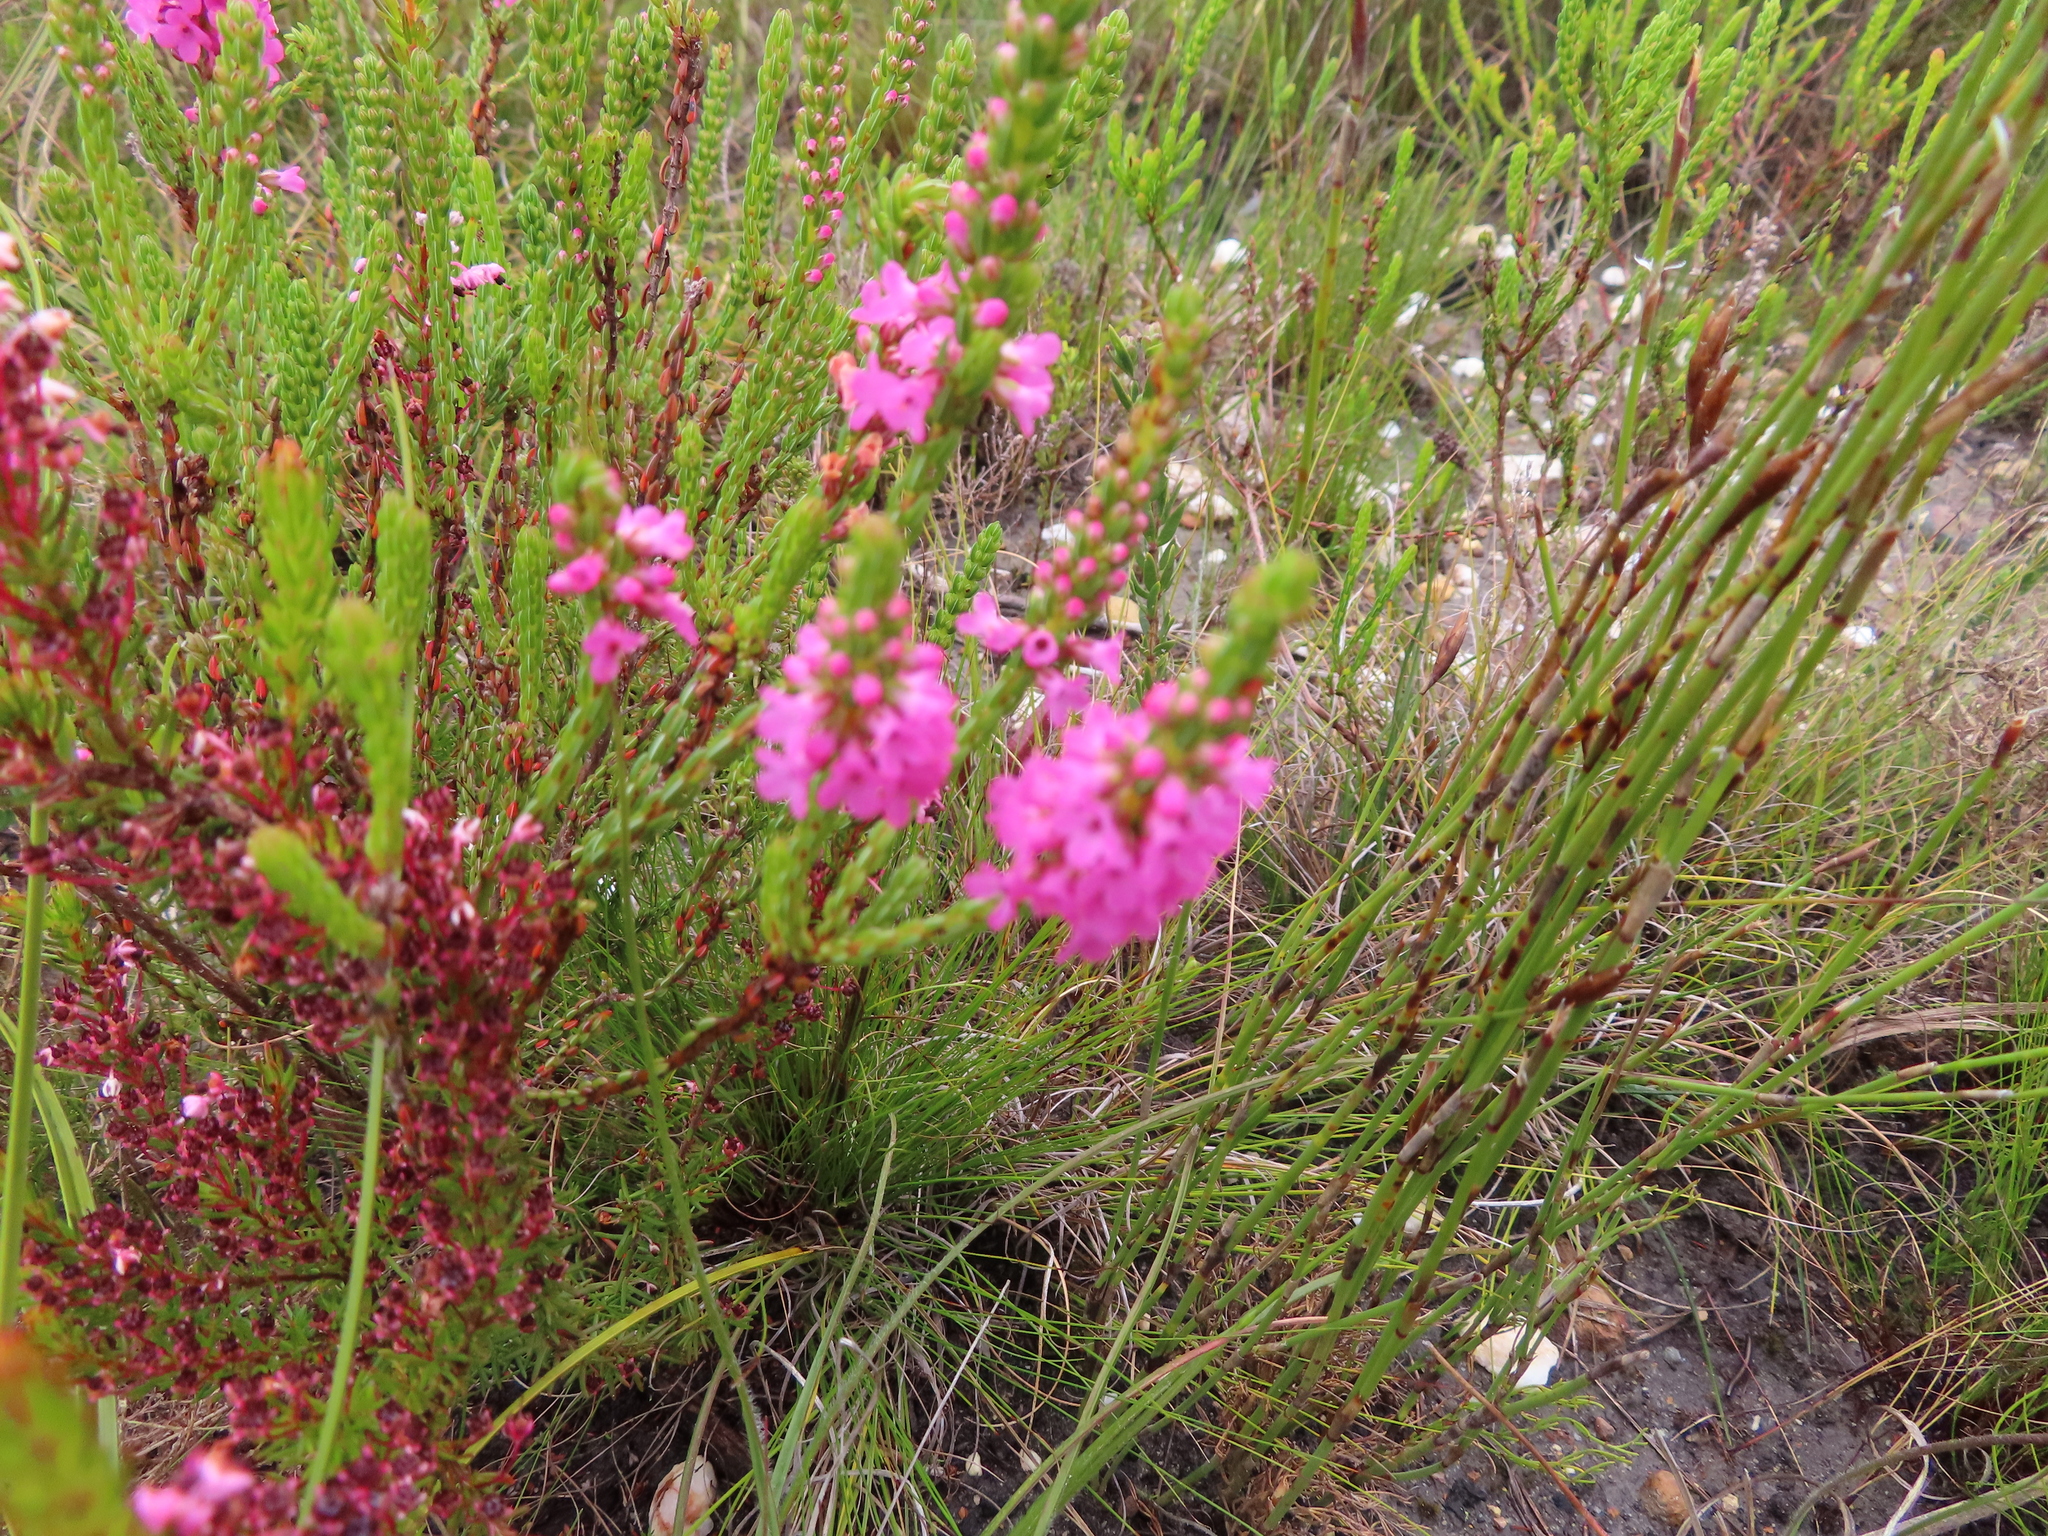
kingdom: Plantae
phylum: Tracheophyta
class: Magnoliopsida
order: Ericales
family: Ericaceae
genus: Erica
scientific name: Erica longiaristata
